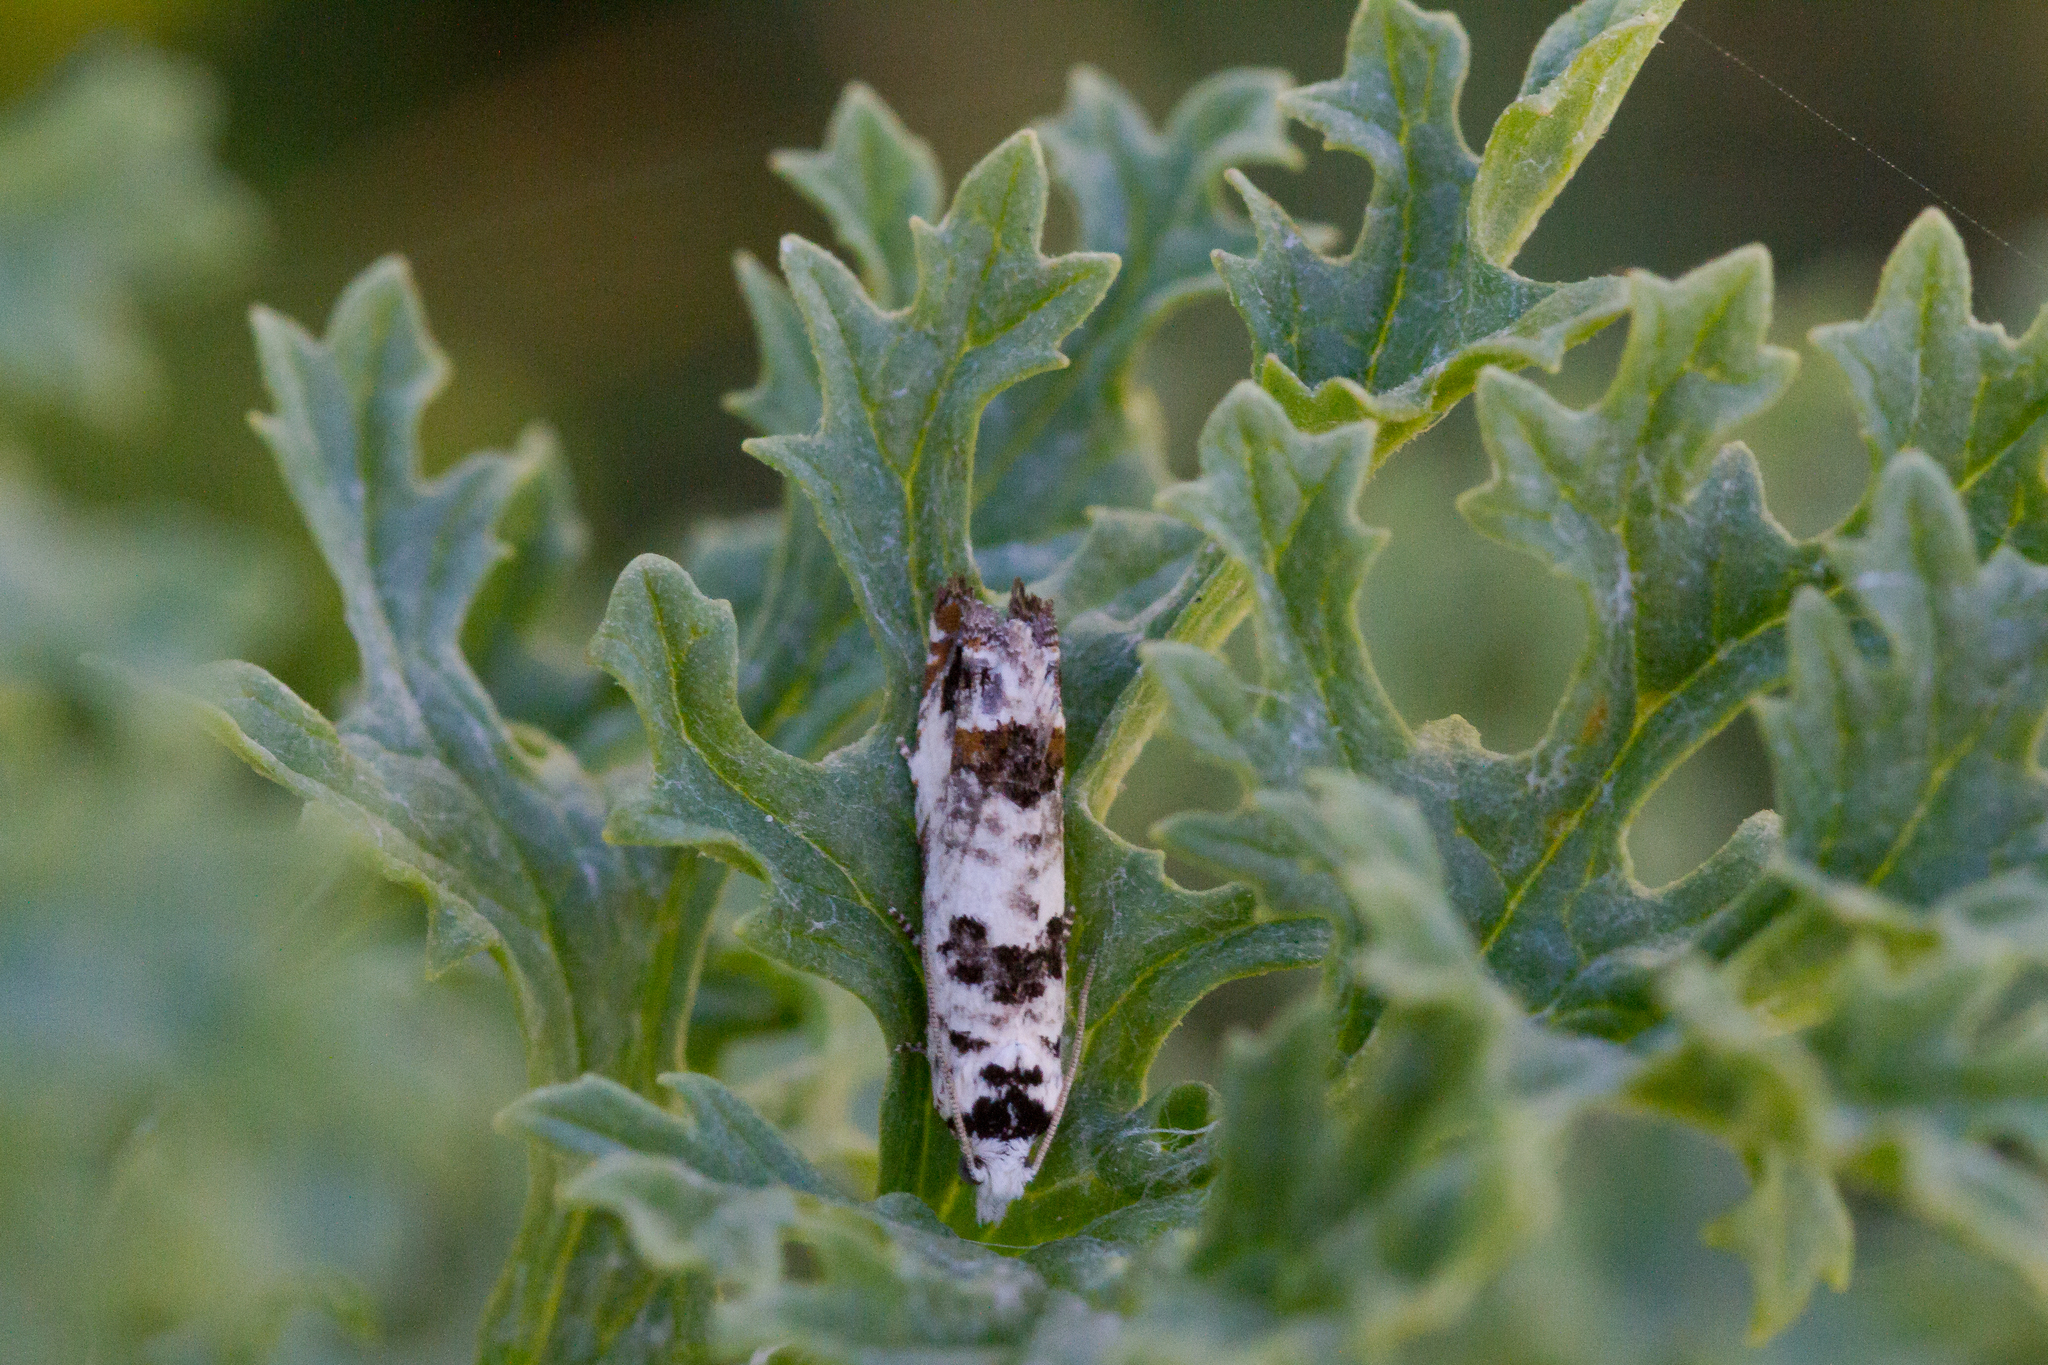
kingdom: Animalia
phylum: Arthropoda
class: Insecta
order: Lepidoptera
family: Tortricidae
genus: Eucosma
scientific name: Eucosma campoliliana
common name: Marbled bell
